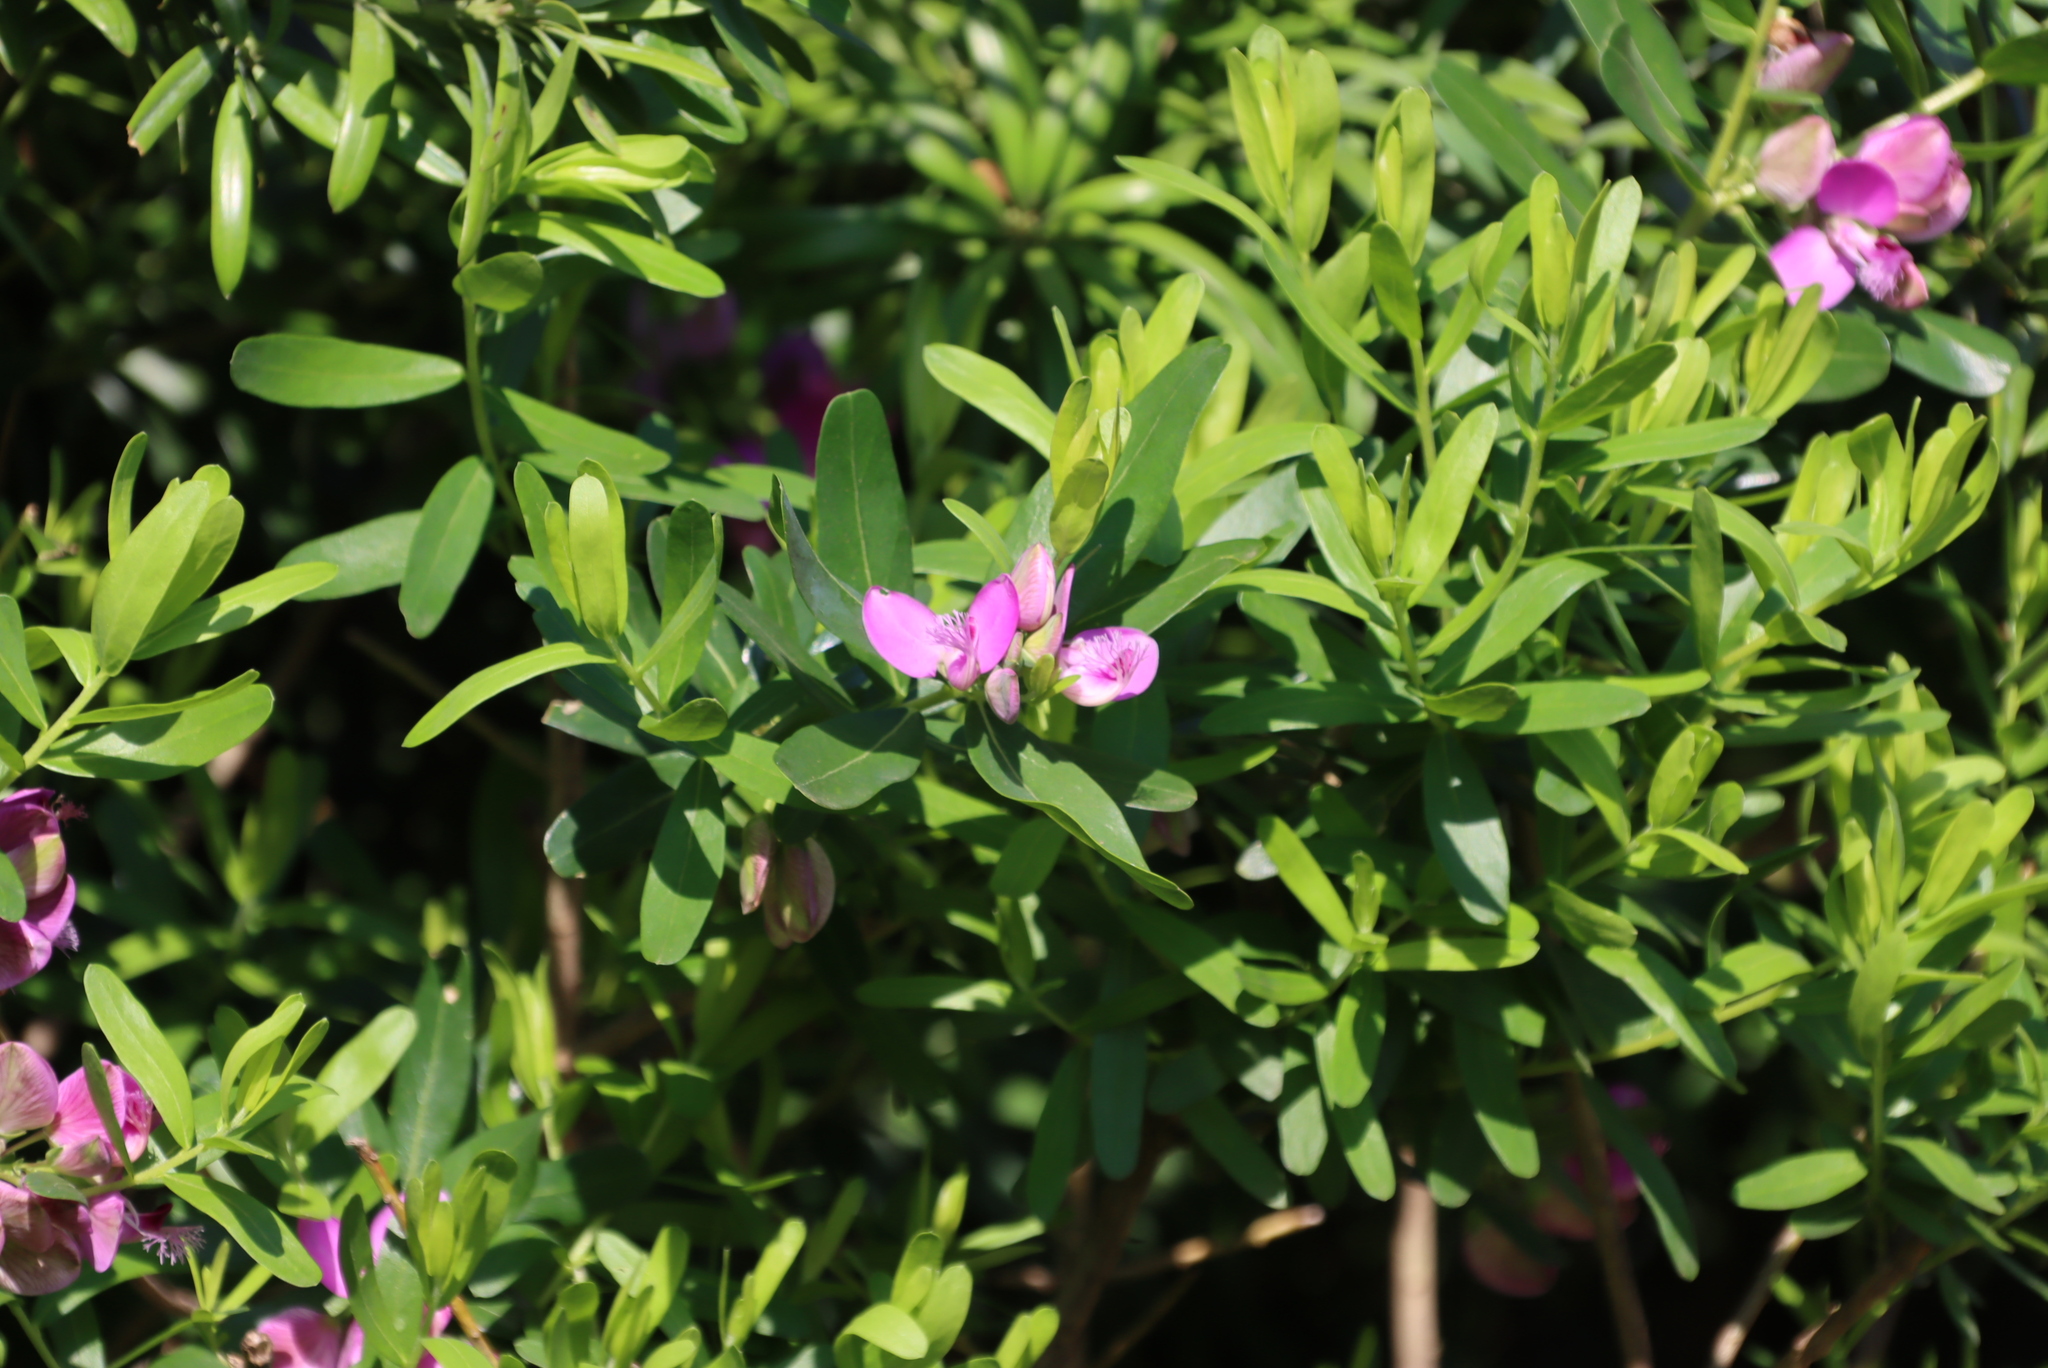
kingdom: Plantae
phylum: Tracheophyta
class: Magnoliopsida
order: Fabales
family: Polygalaceae
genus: Polygala
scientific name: Polygala myrtifolia
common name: Myrtle-leaf milkwort
